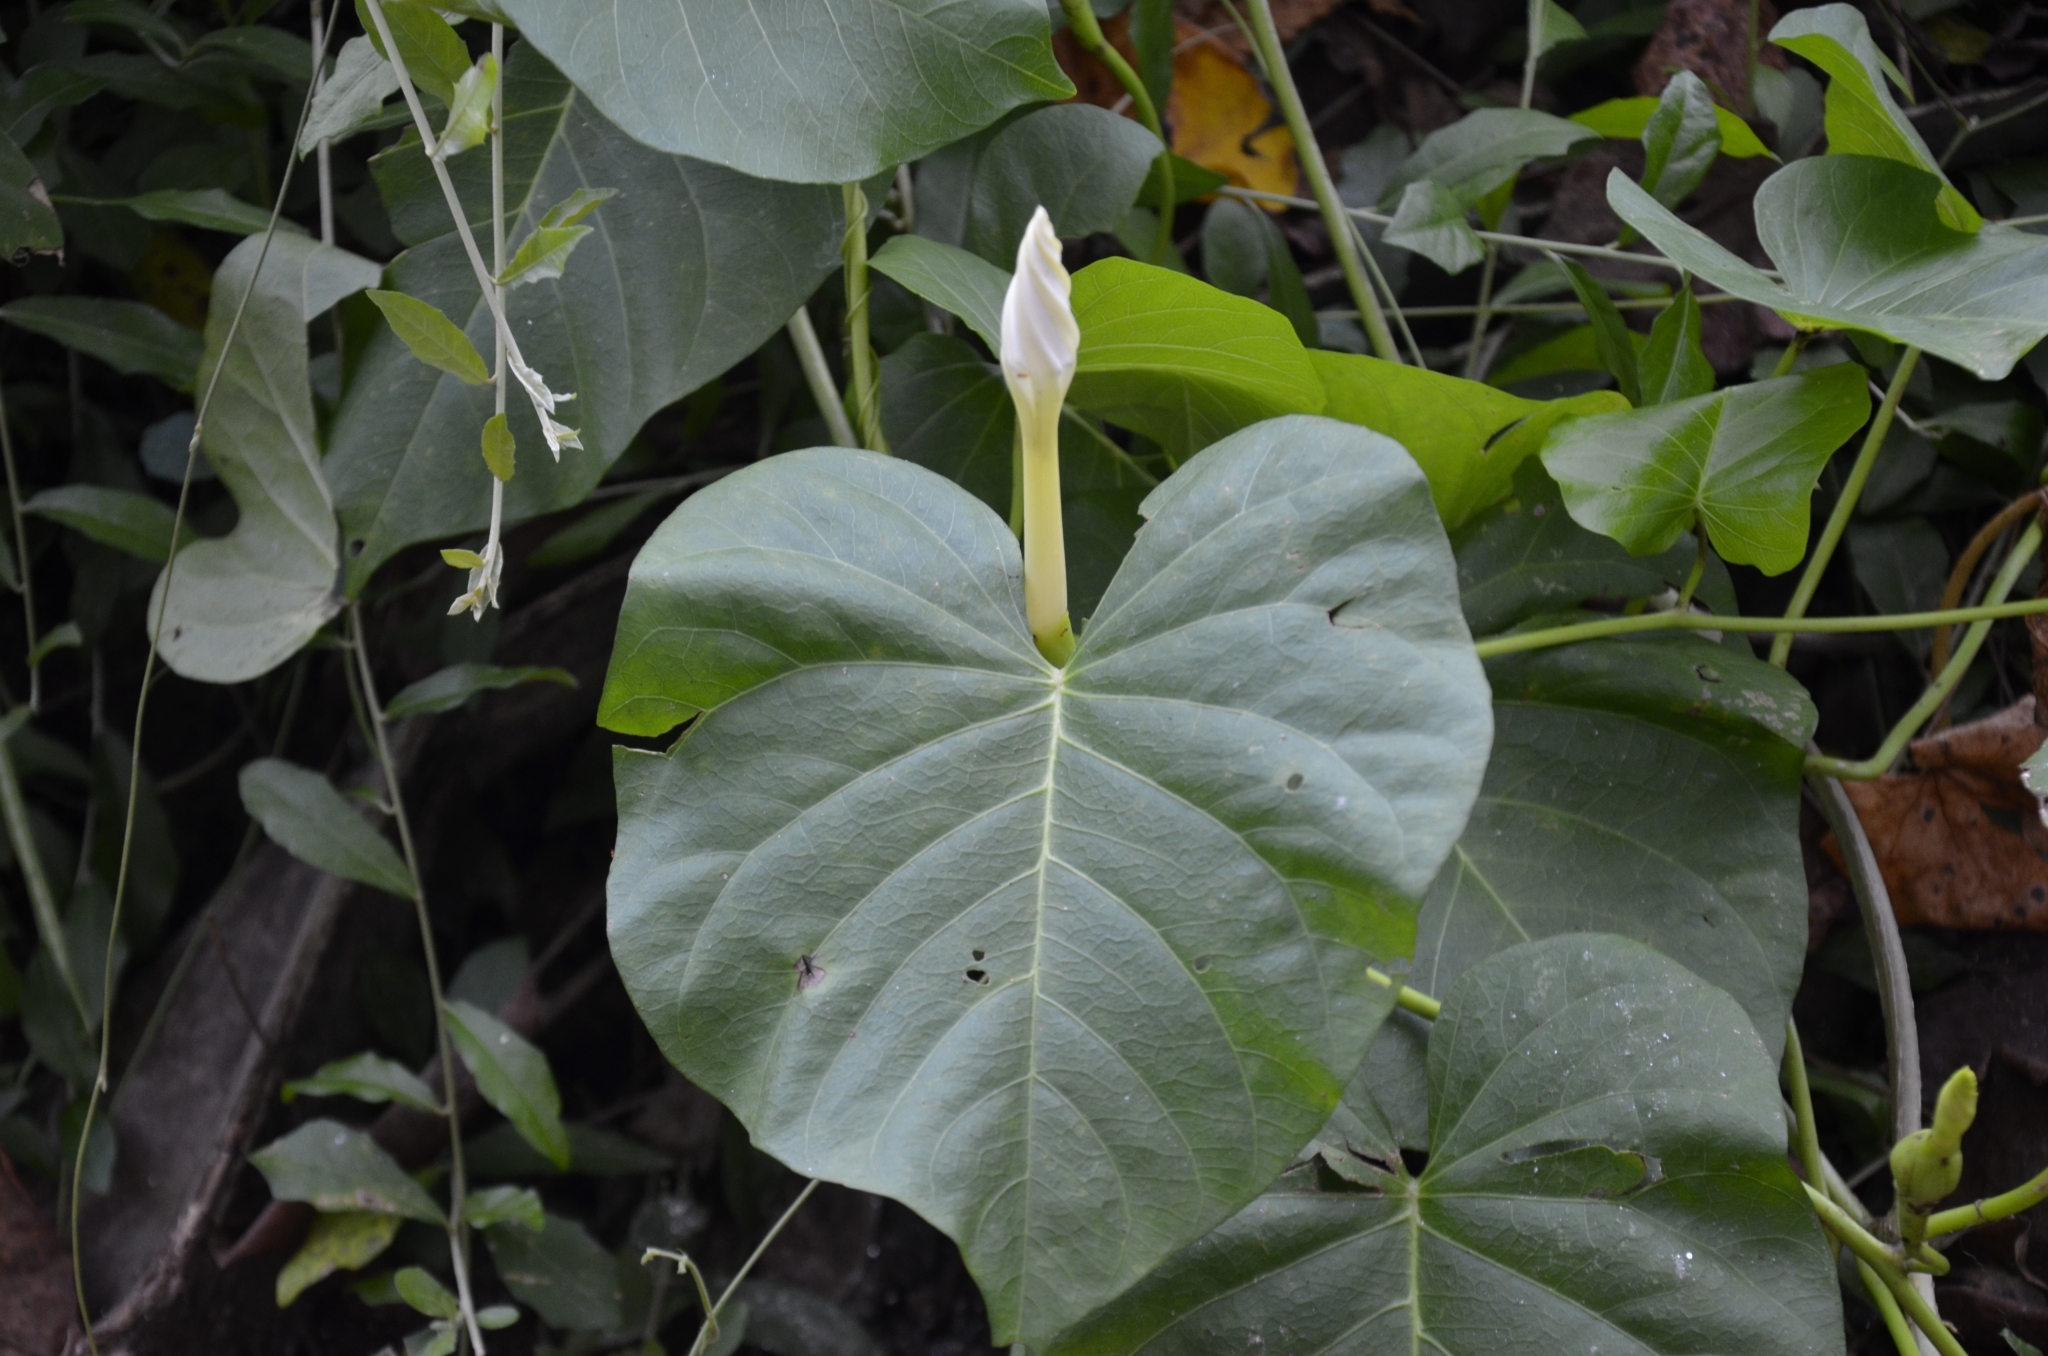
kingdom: Plantae
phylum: Tracheophyta
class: Magnoliopsida
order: Solanales
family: Convolvulaceae
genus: Ipomoea
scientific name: Ipomoea violacea
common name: Beach moonflower
